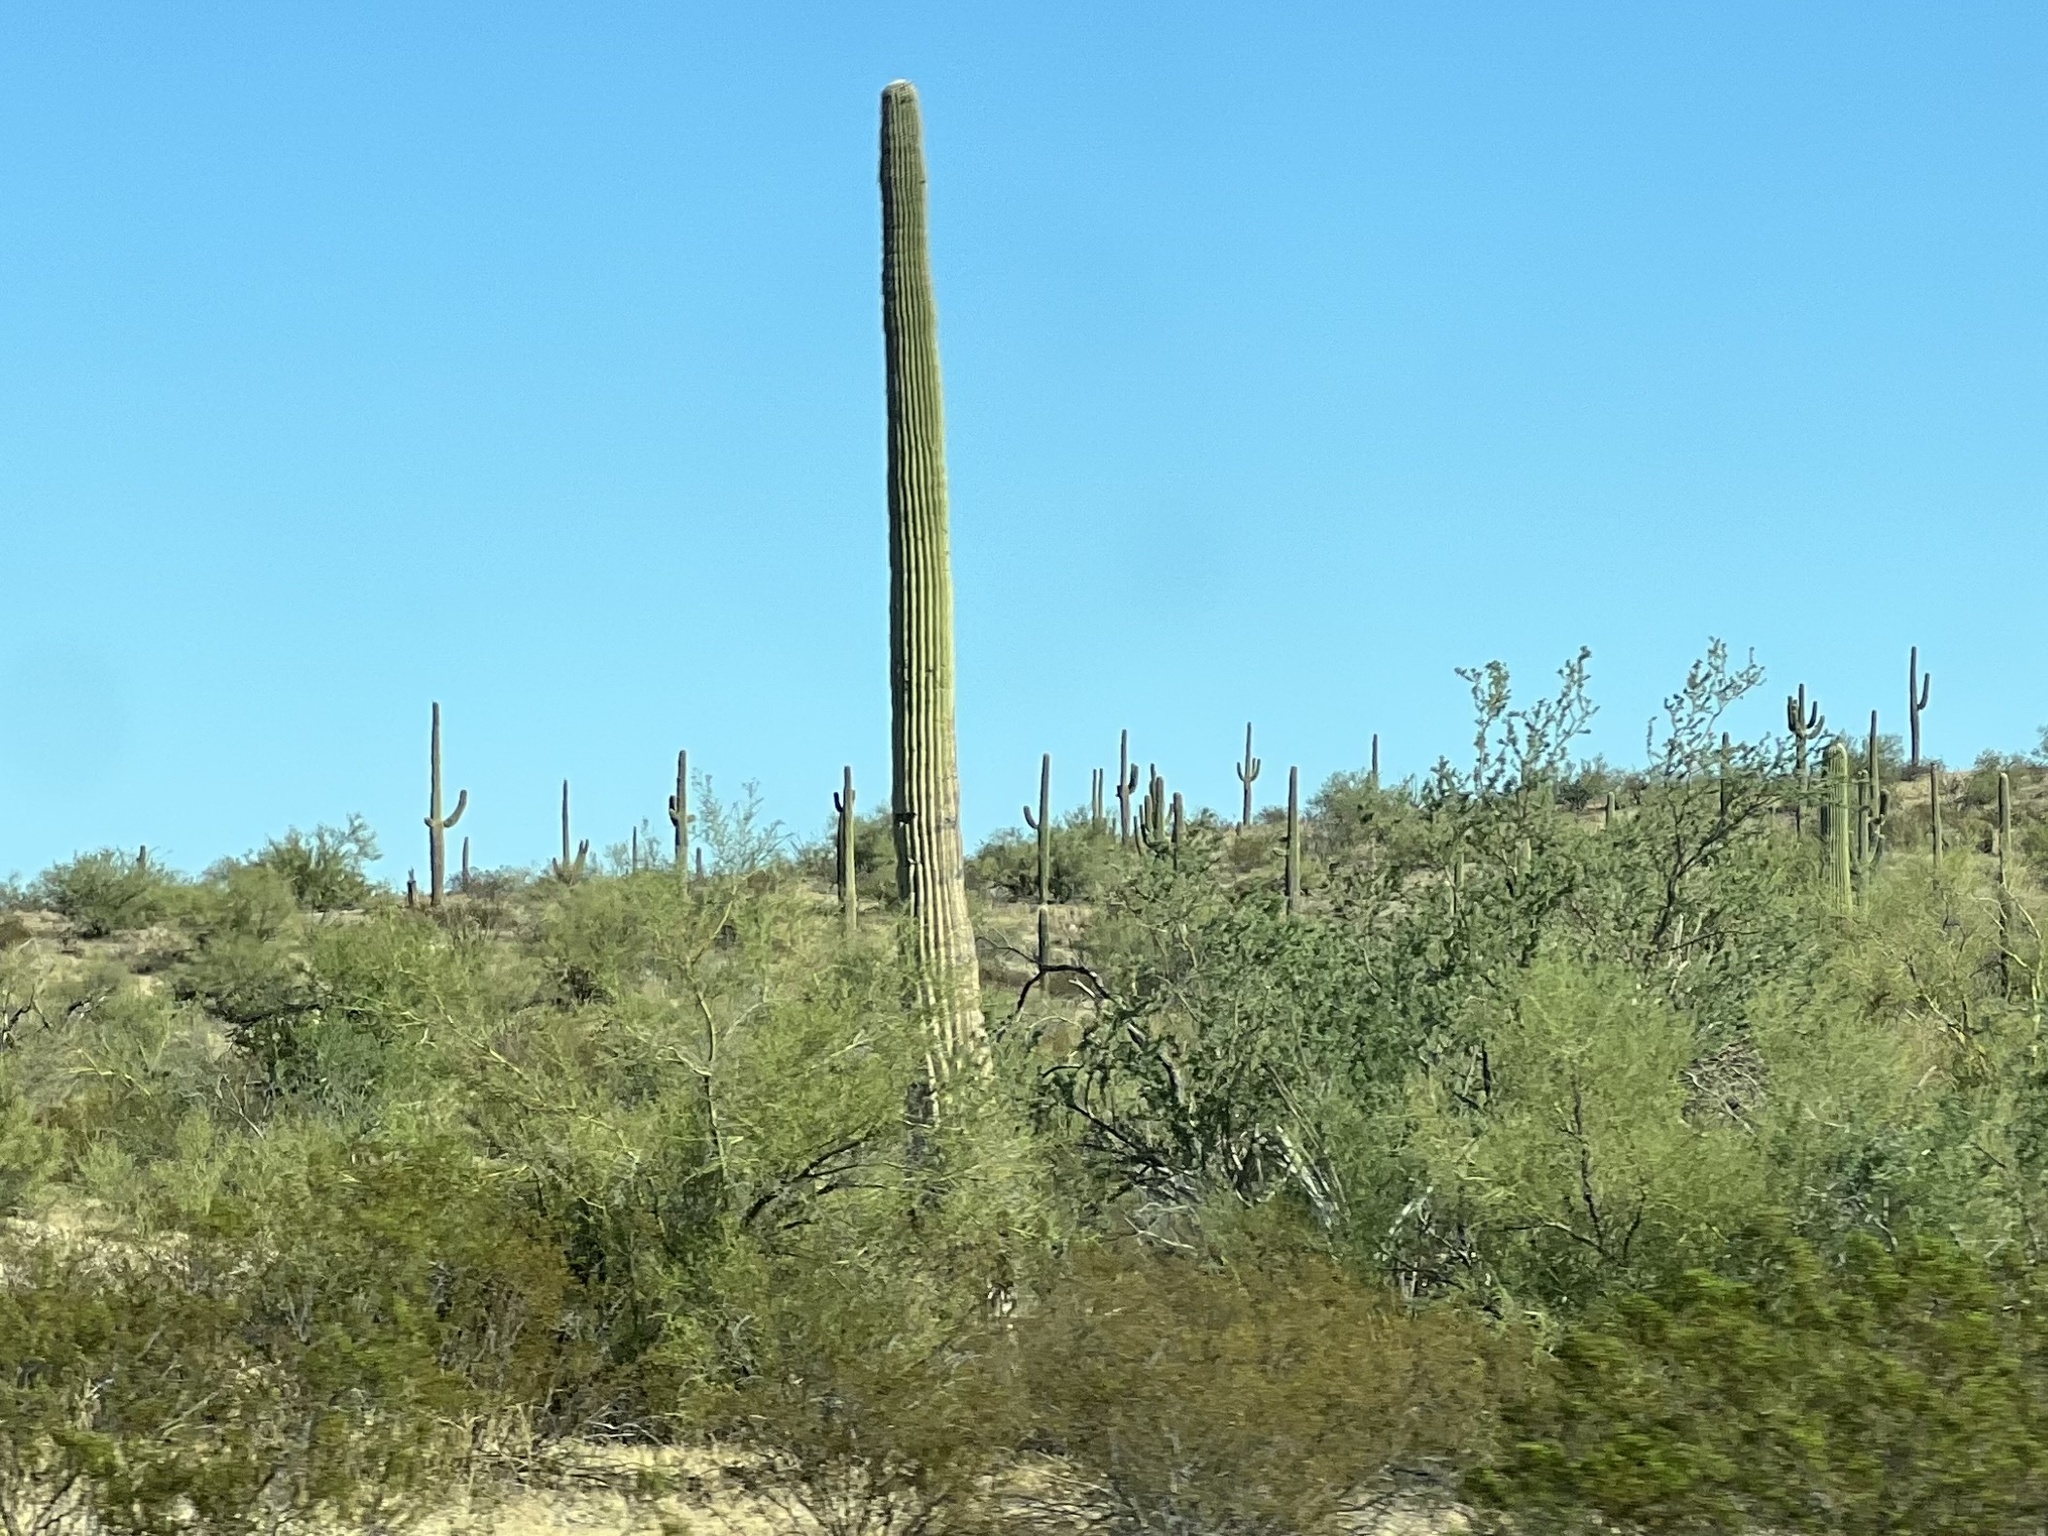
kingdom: Plantae
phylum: Tracheophyta
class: Magnoliopsida
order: Caryophyllales
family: Cactaceae
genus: Carnegiea
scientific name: Carnegiea gigantea
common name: Saguaro
